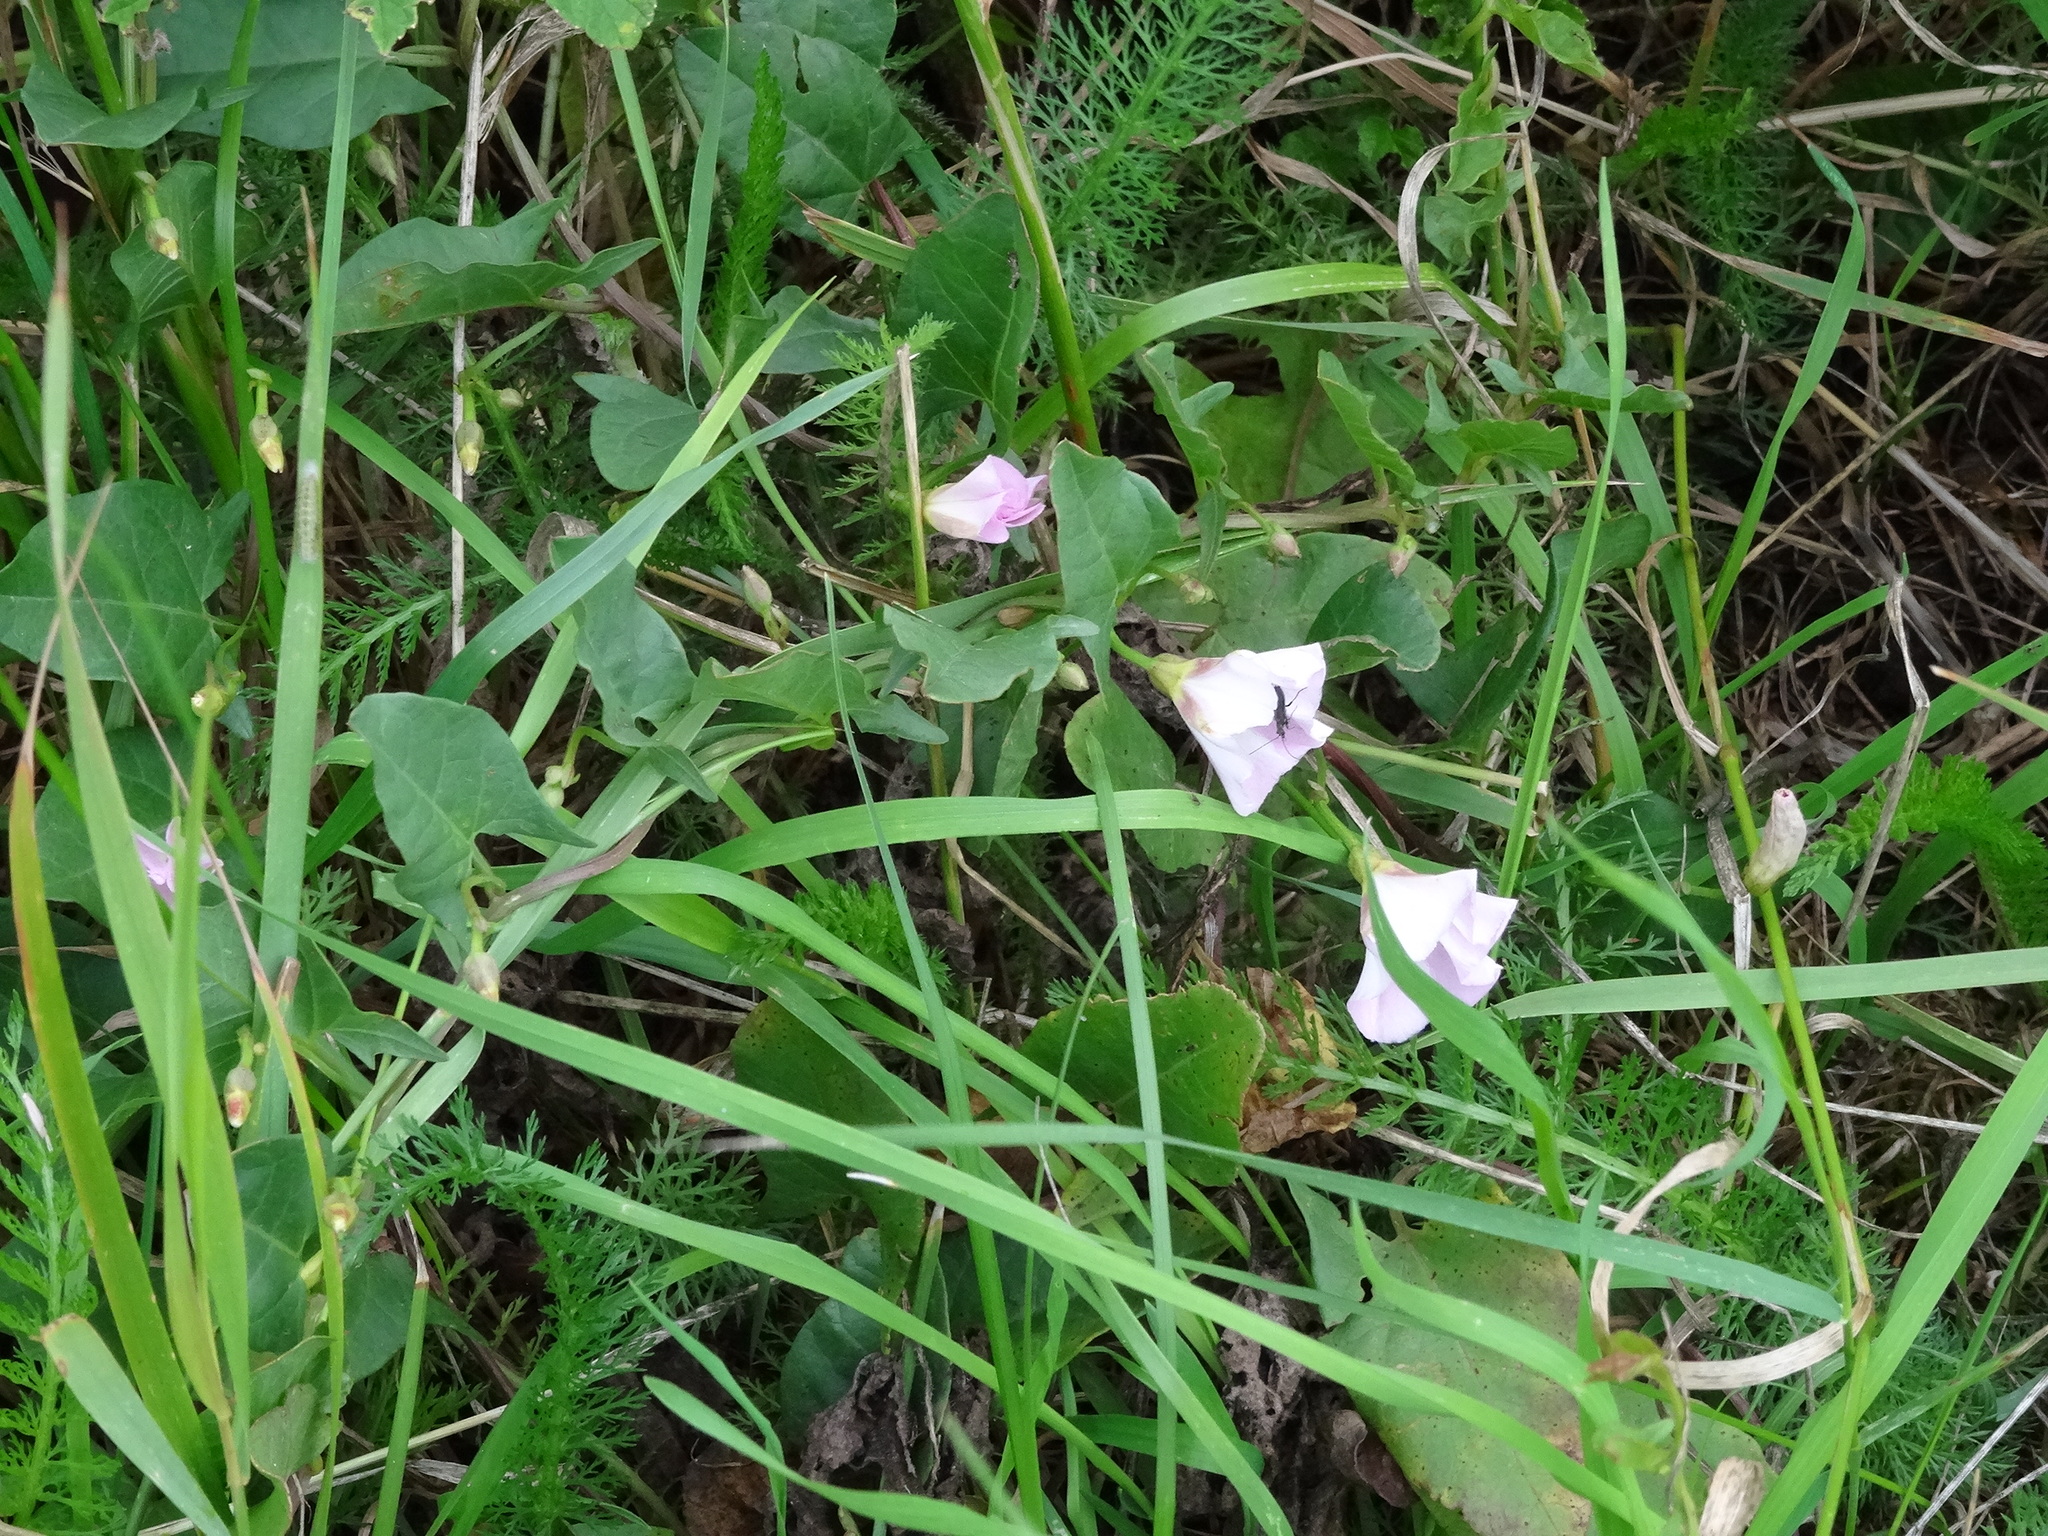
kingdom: Plantae
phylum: Tracheophyta
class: Magnoliopsida
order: Solanales
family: Convolvulaceae
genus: Convolvulus
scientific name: Convolvulus arvensis
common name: Field bindweed
